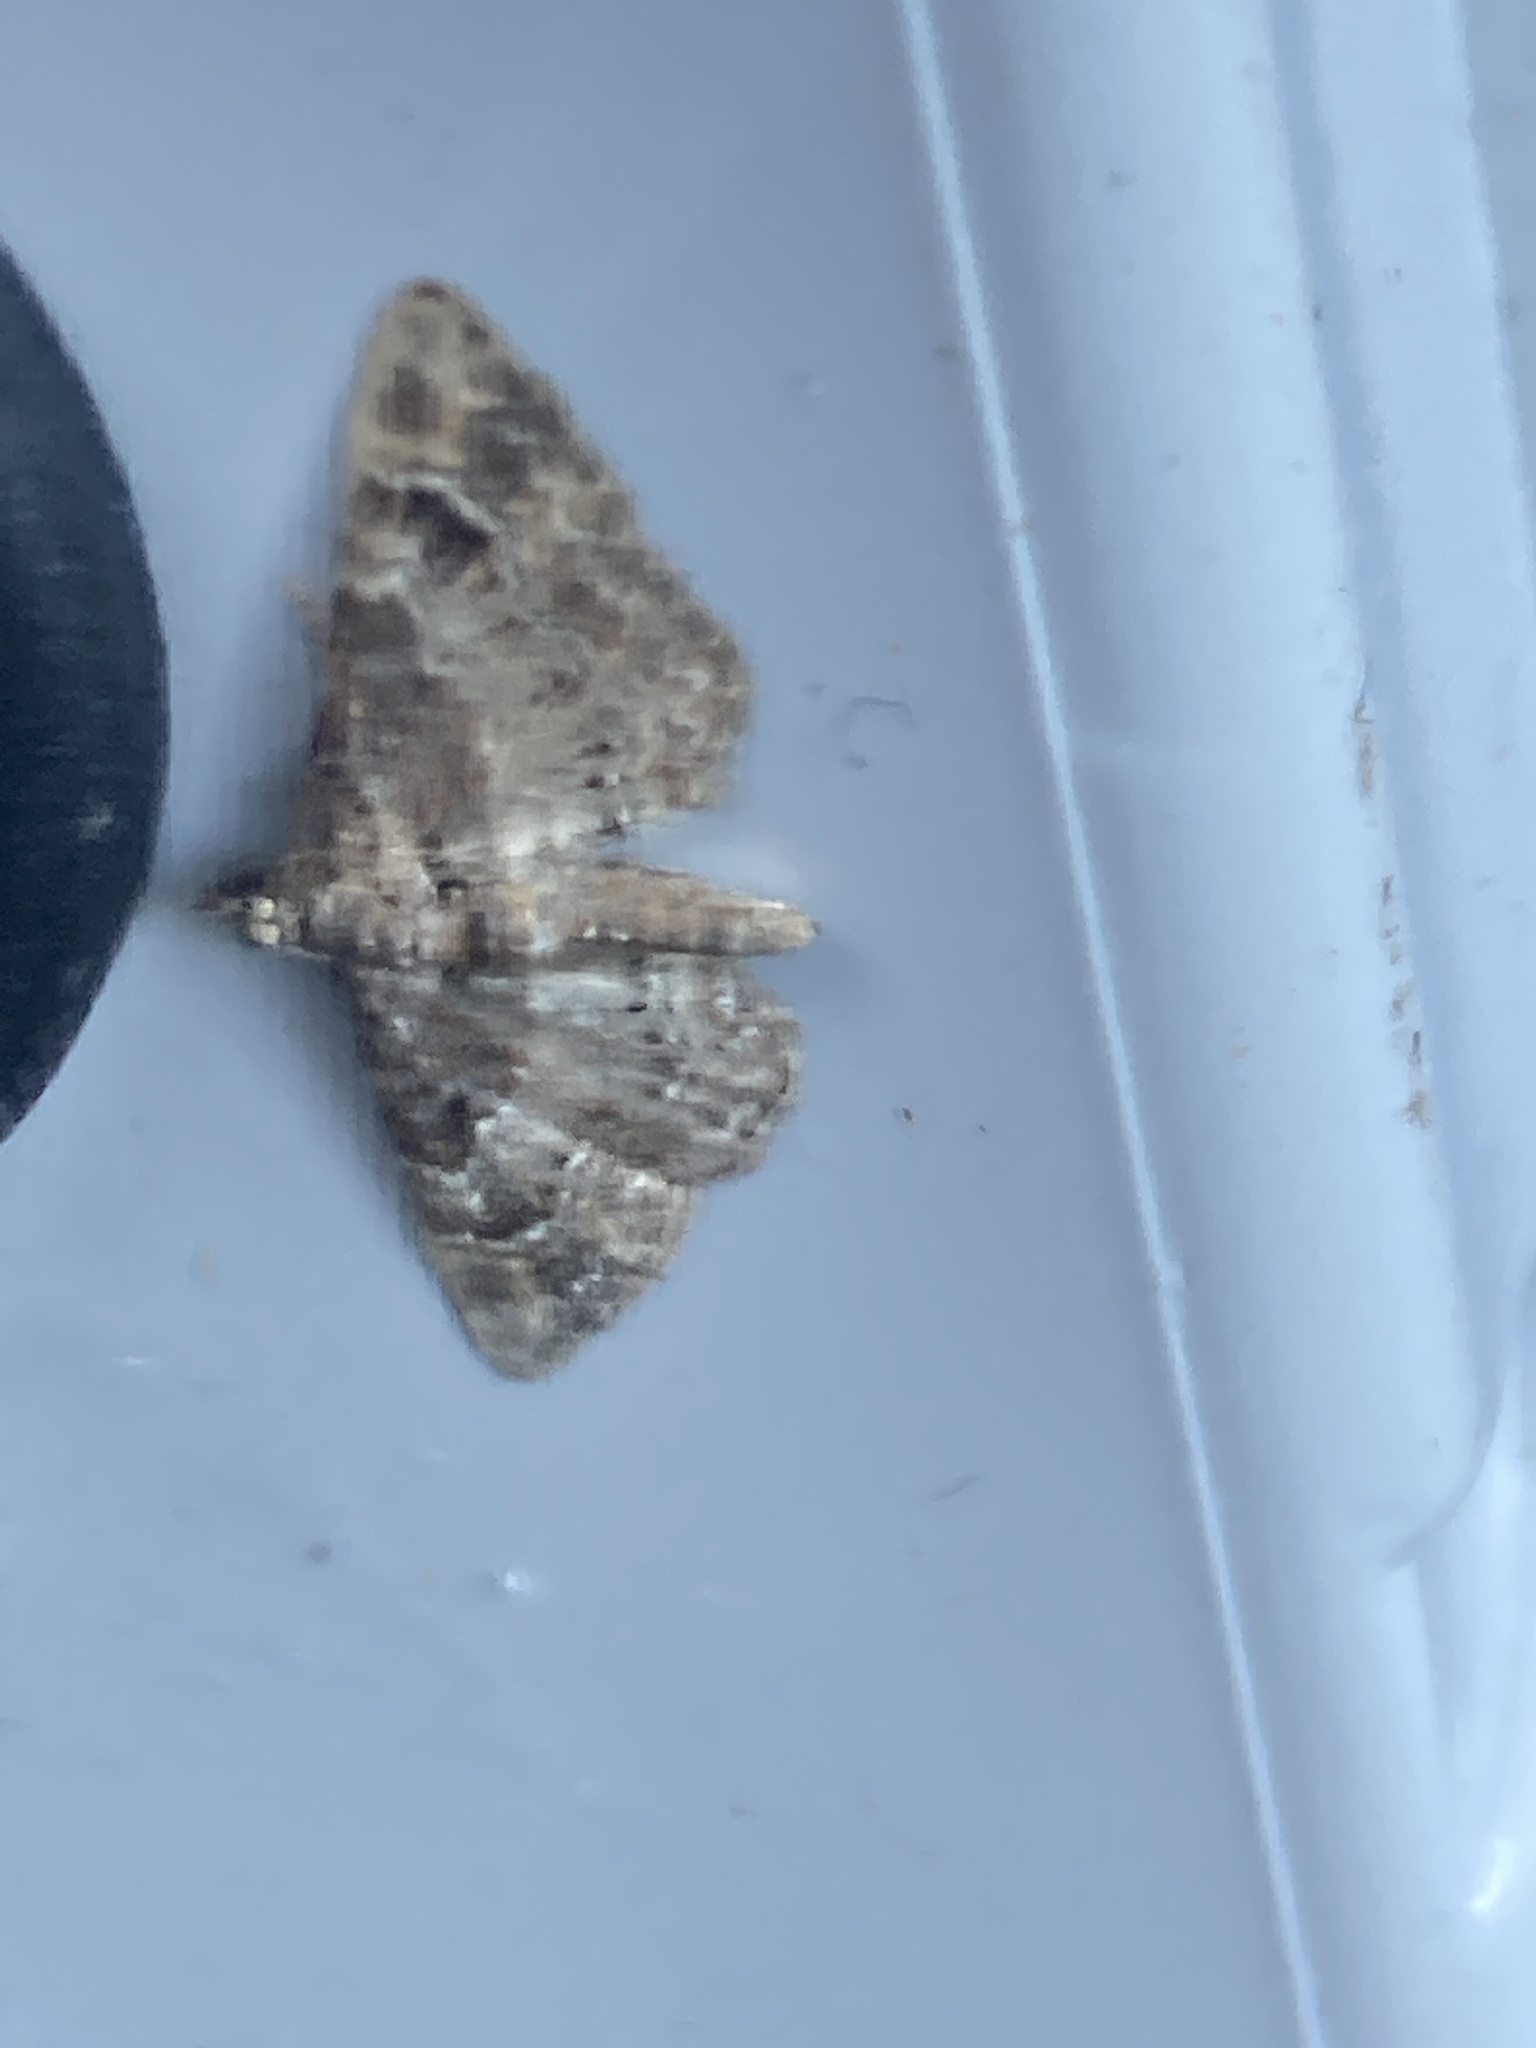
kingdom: Animalia
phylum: Arthropoda
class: Insecta
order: Lepidoptera
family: Geometridae
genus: Gymnoscelis
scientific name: Gymnoscelis rufifasciata
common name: Double-striped pug
